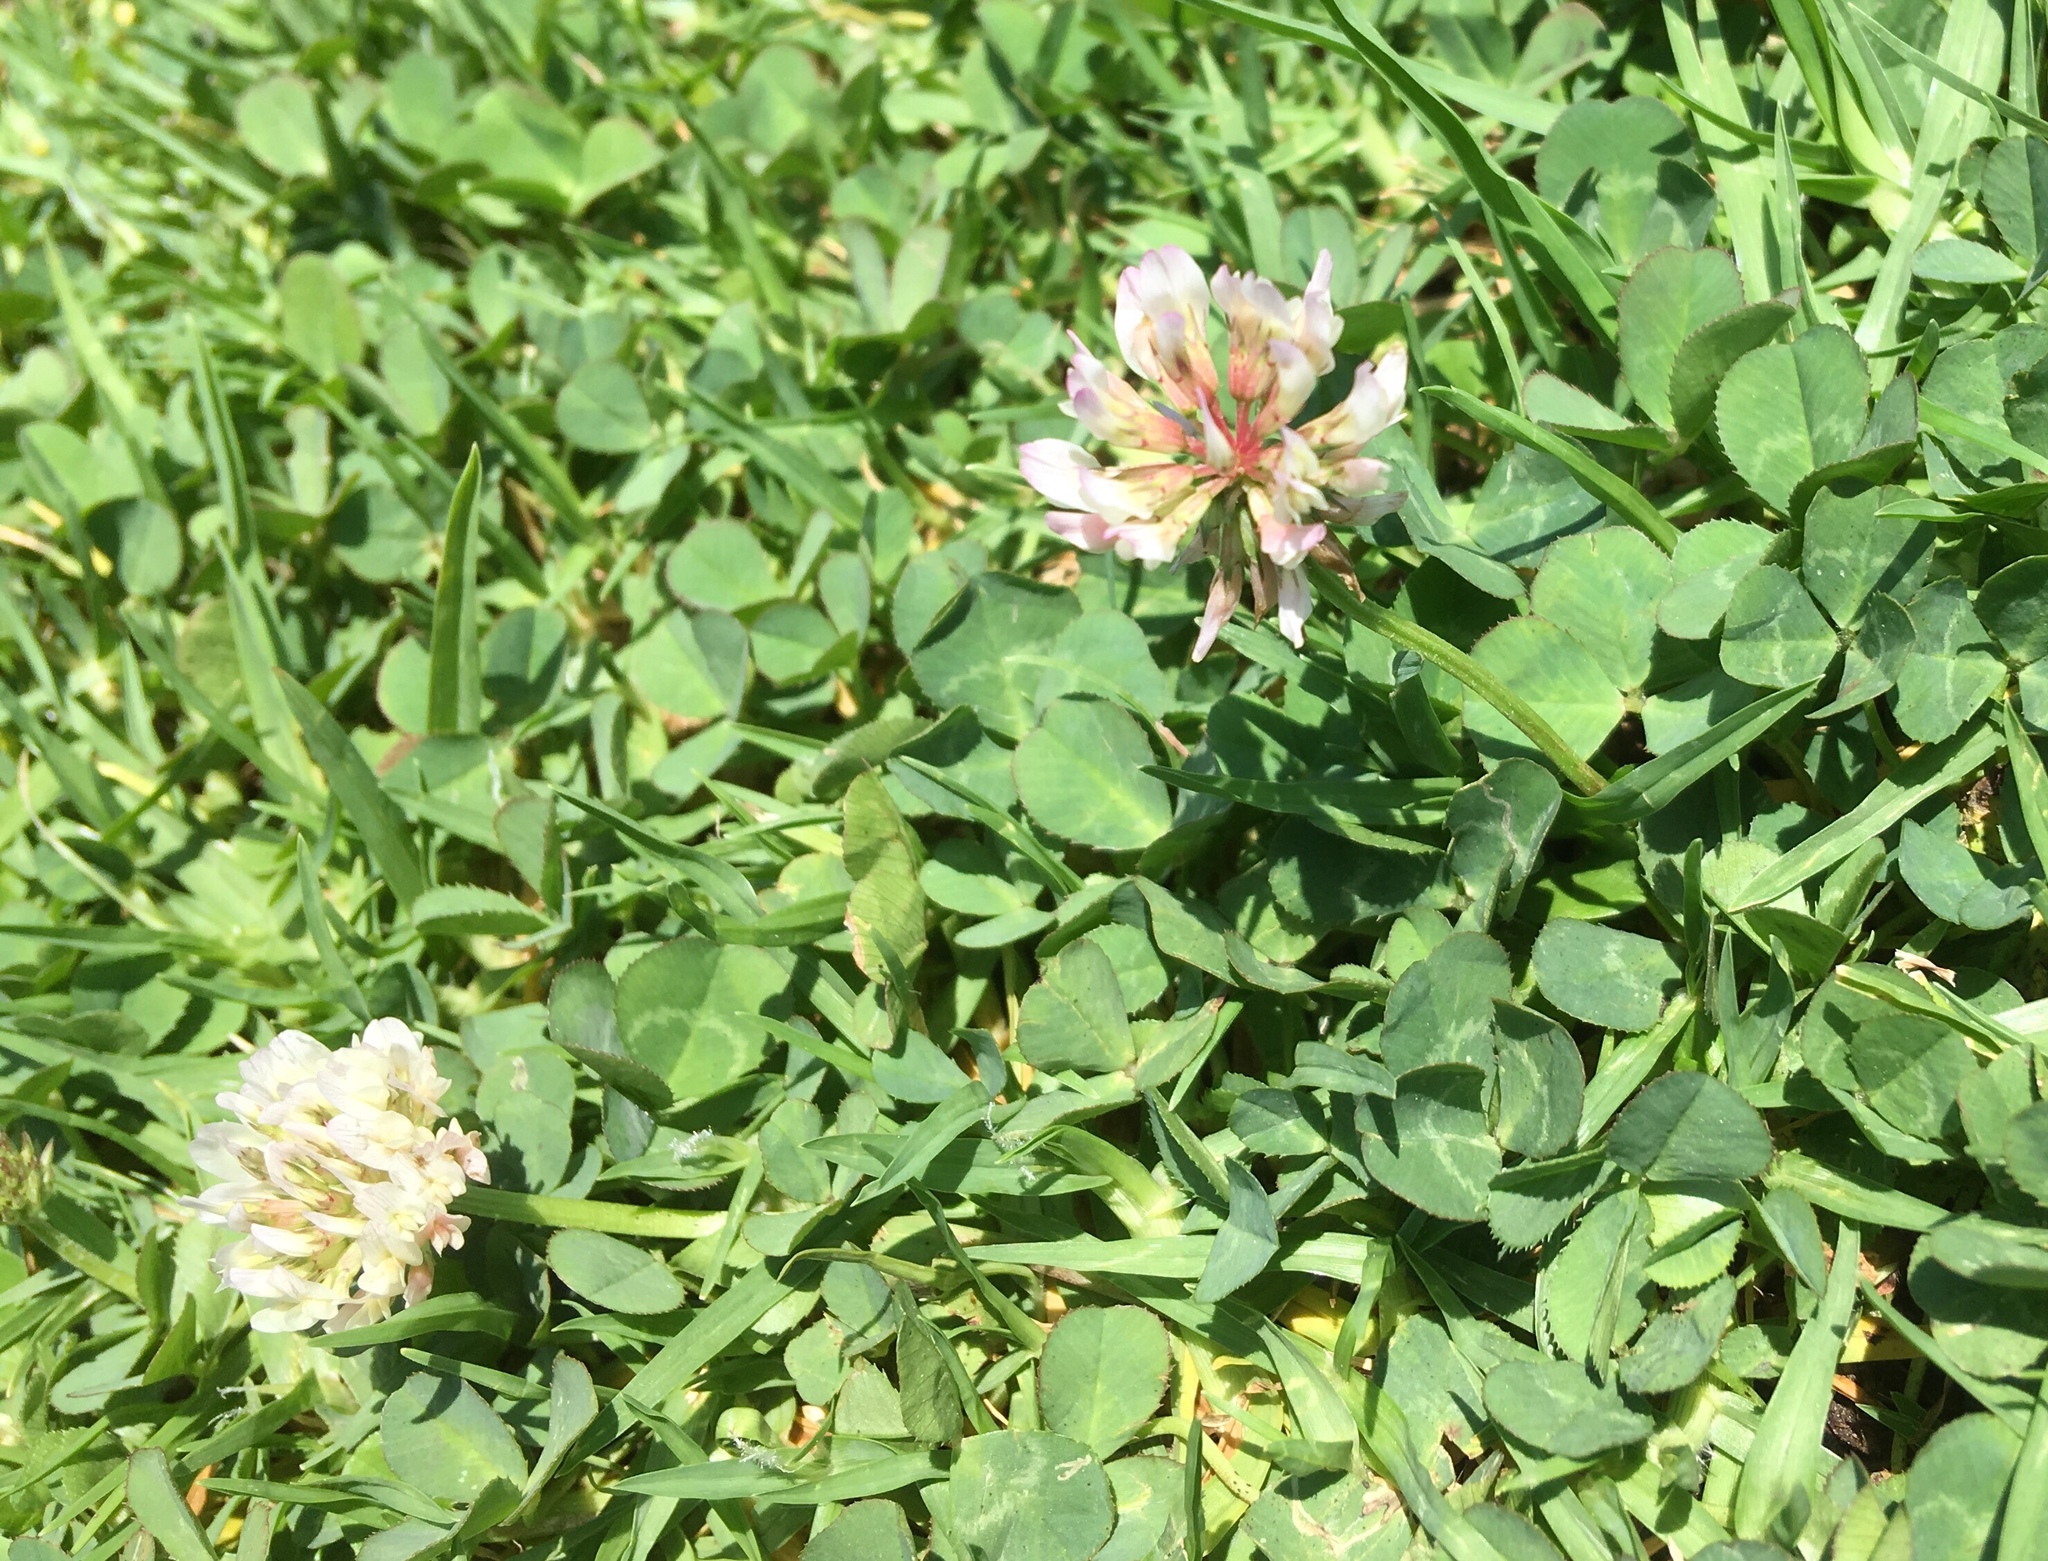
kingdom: Plantae
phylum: Tracheophyta
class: Magnoliopsida
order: Fabales
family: Fabaceae
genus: Trifolium
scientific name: Trifolium repens
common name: White clover
